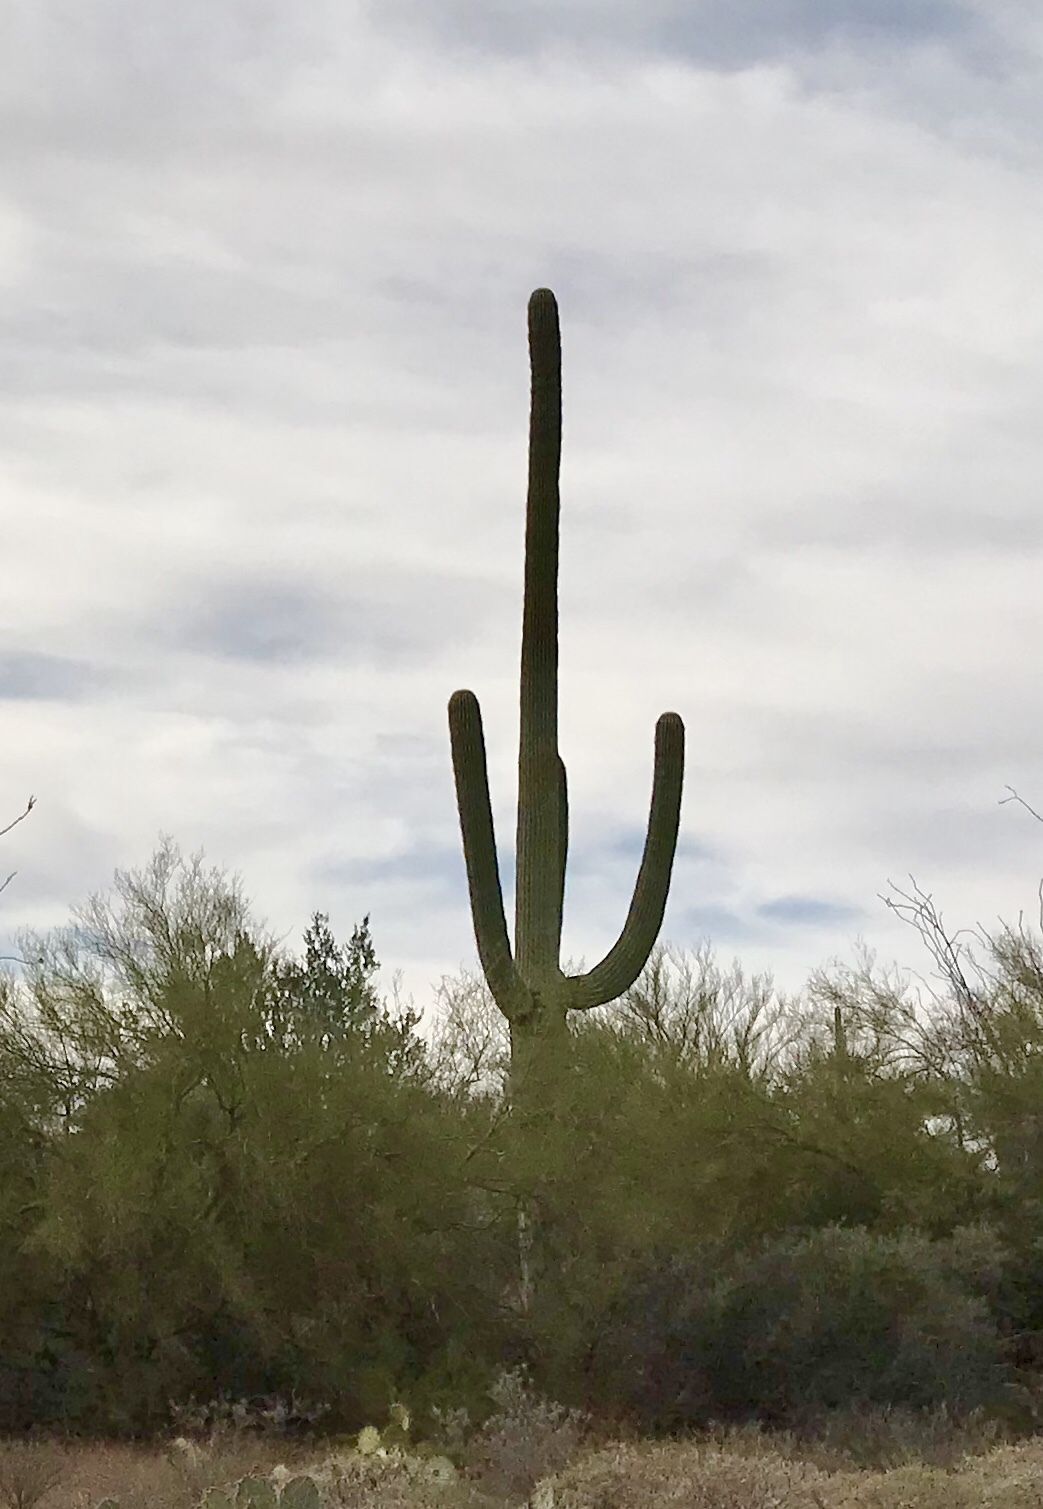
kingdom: Plantae
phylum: Tracheophyta
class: Magnoliopsida
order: Caryophyllales
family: Cactaceae
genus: Carnegiea
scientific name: Carnegiea gigantea
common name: Saguaro
